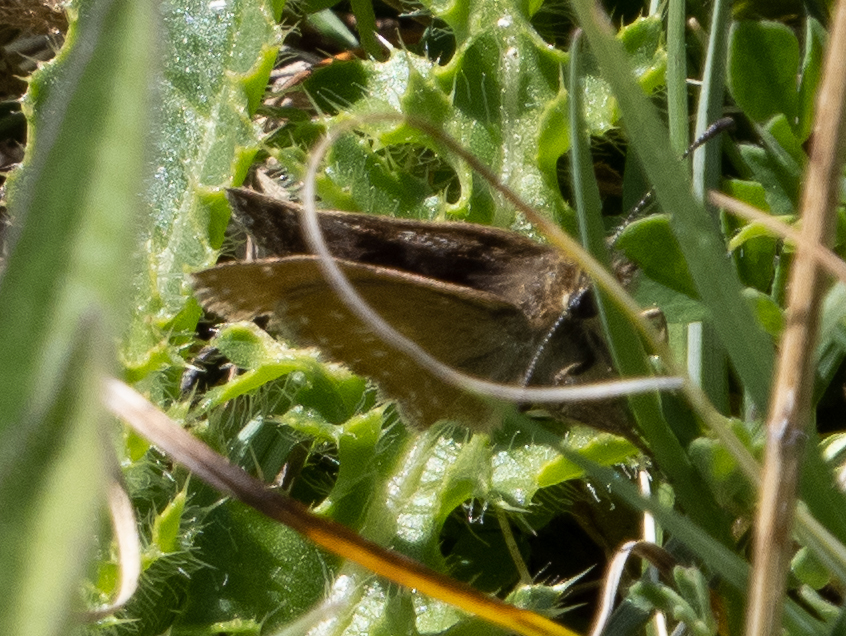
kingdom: Animalia
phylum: Arthropoda
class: Insecta
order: Lepidoptera
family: Hesperiidae
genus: Erynnis
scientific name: Erynnis tages
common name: Dingy skipper
